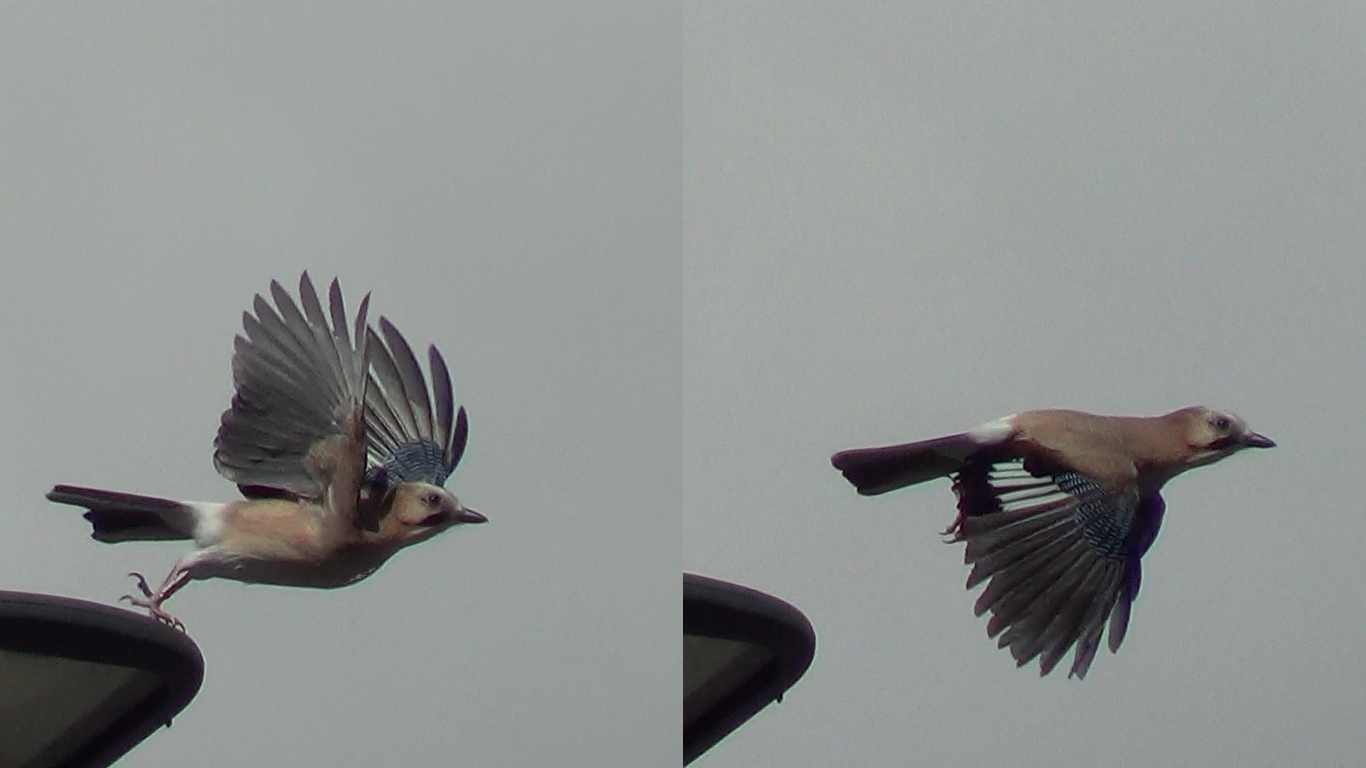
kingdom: Animalia
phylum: Chordata
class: Aves
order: Passeriformes
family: Corvidae
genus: Garrulus
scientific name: Garrulus glandarius
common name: Eurasian jay
